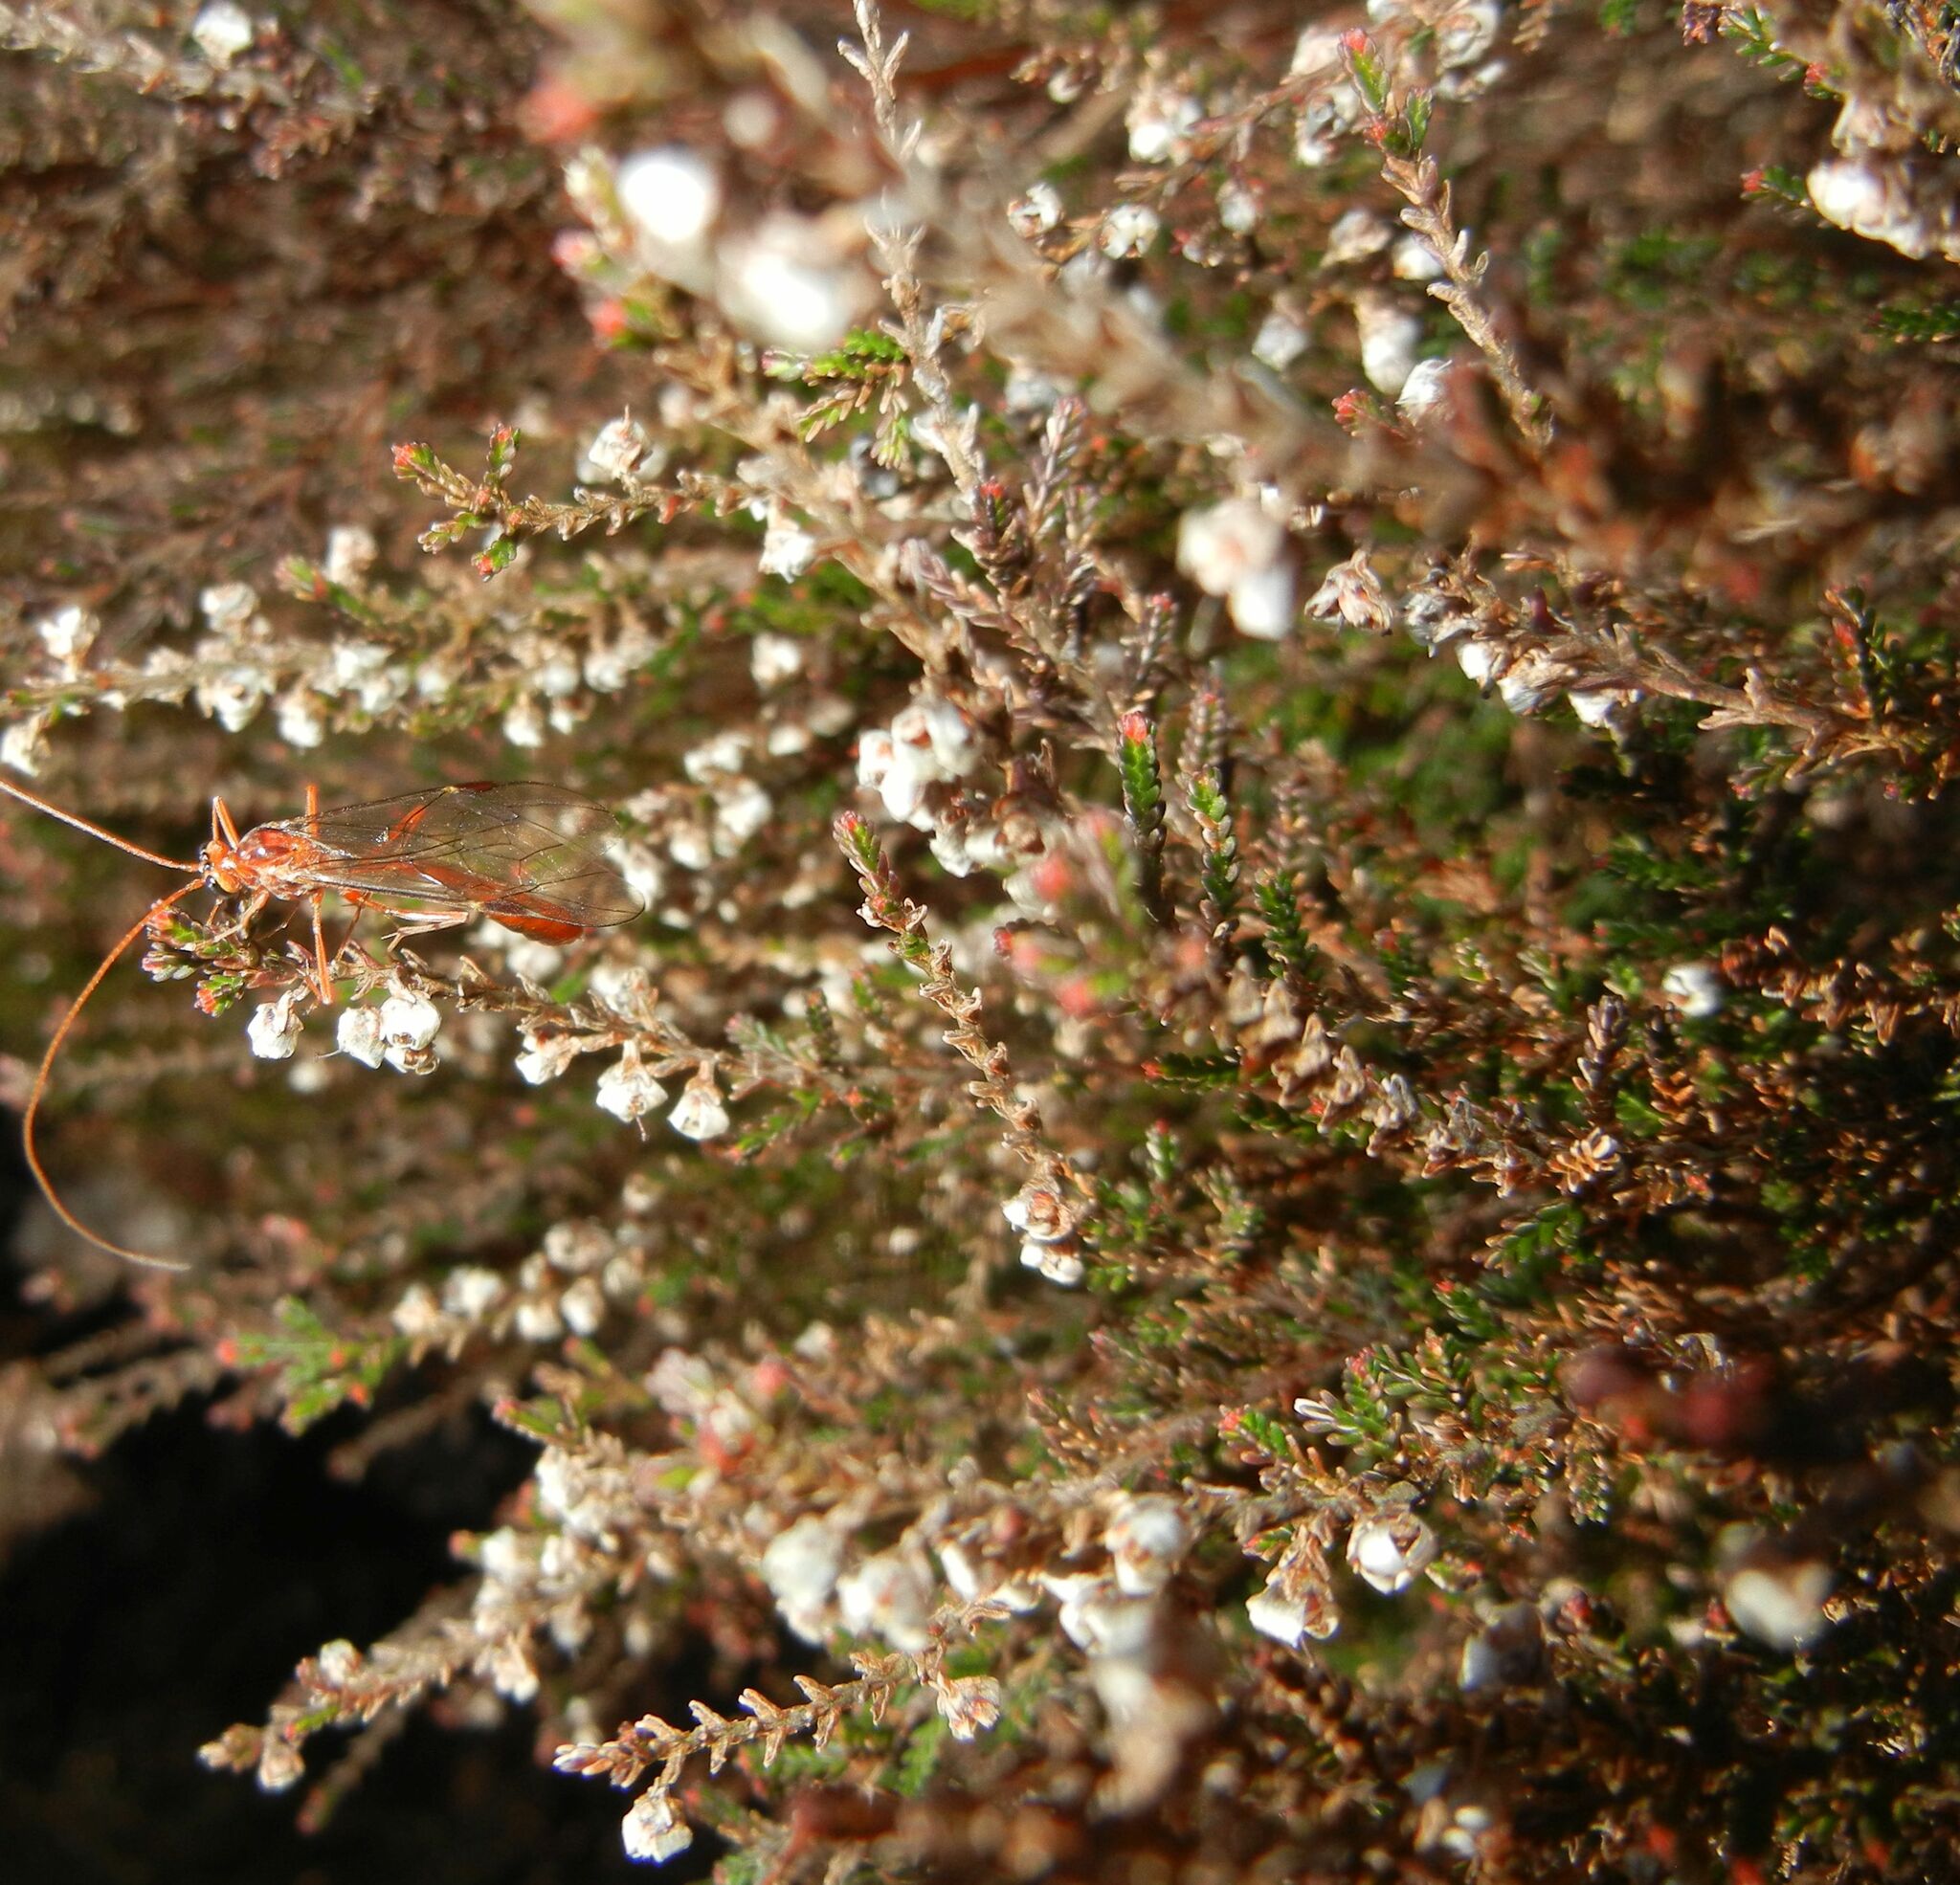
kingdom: Plantae
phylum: Tracheophyta
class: Magnoliopsida
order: Ericales
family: Ericaceae
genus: Calluna
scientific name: Calluna vulgaris
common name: Heather
